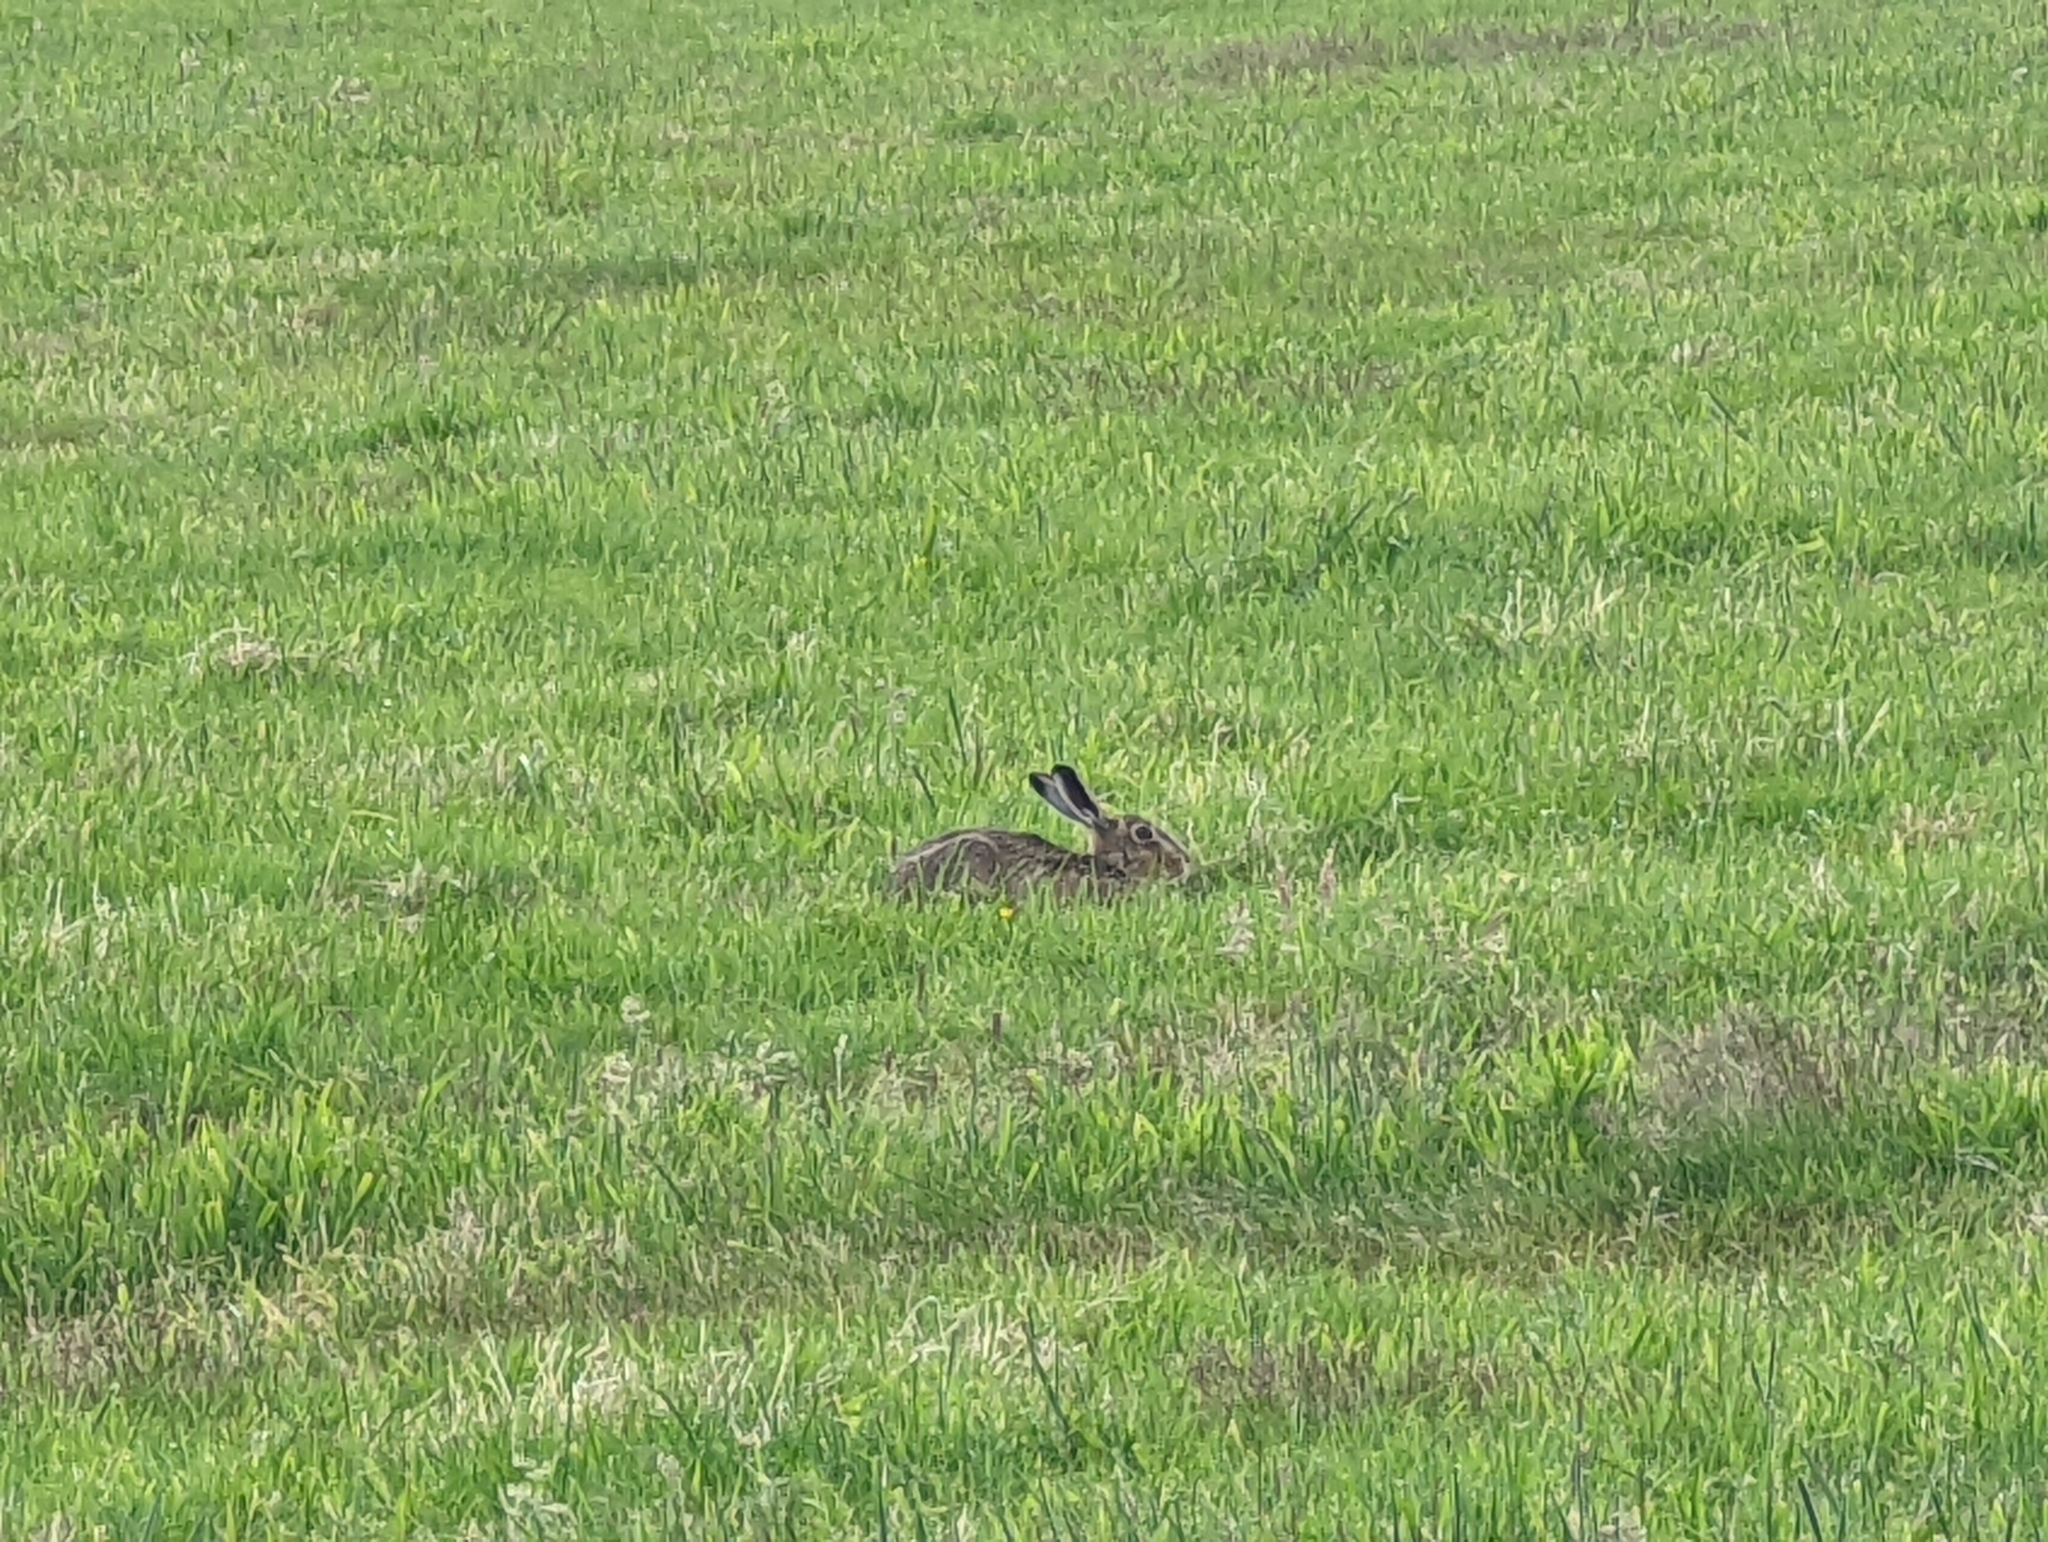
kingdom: Animalia
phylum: Chordata
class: Mammalia
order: Lagomorpha
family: Leporidae
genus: Lepus
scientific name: Lepus europaeus
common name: European hare
